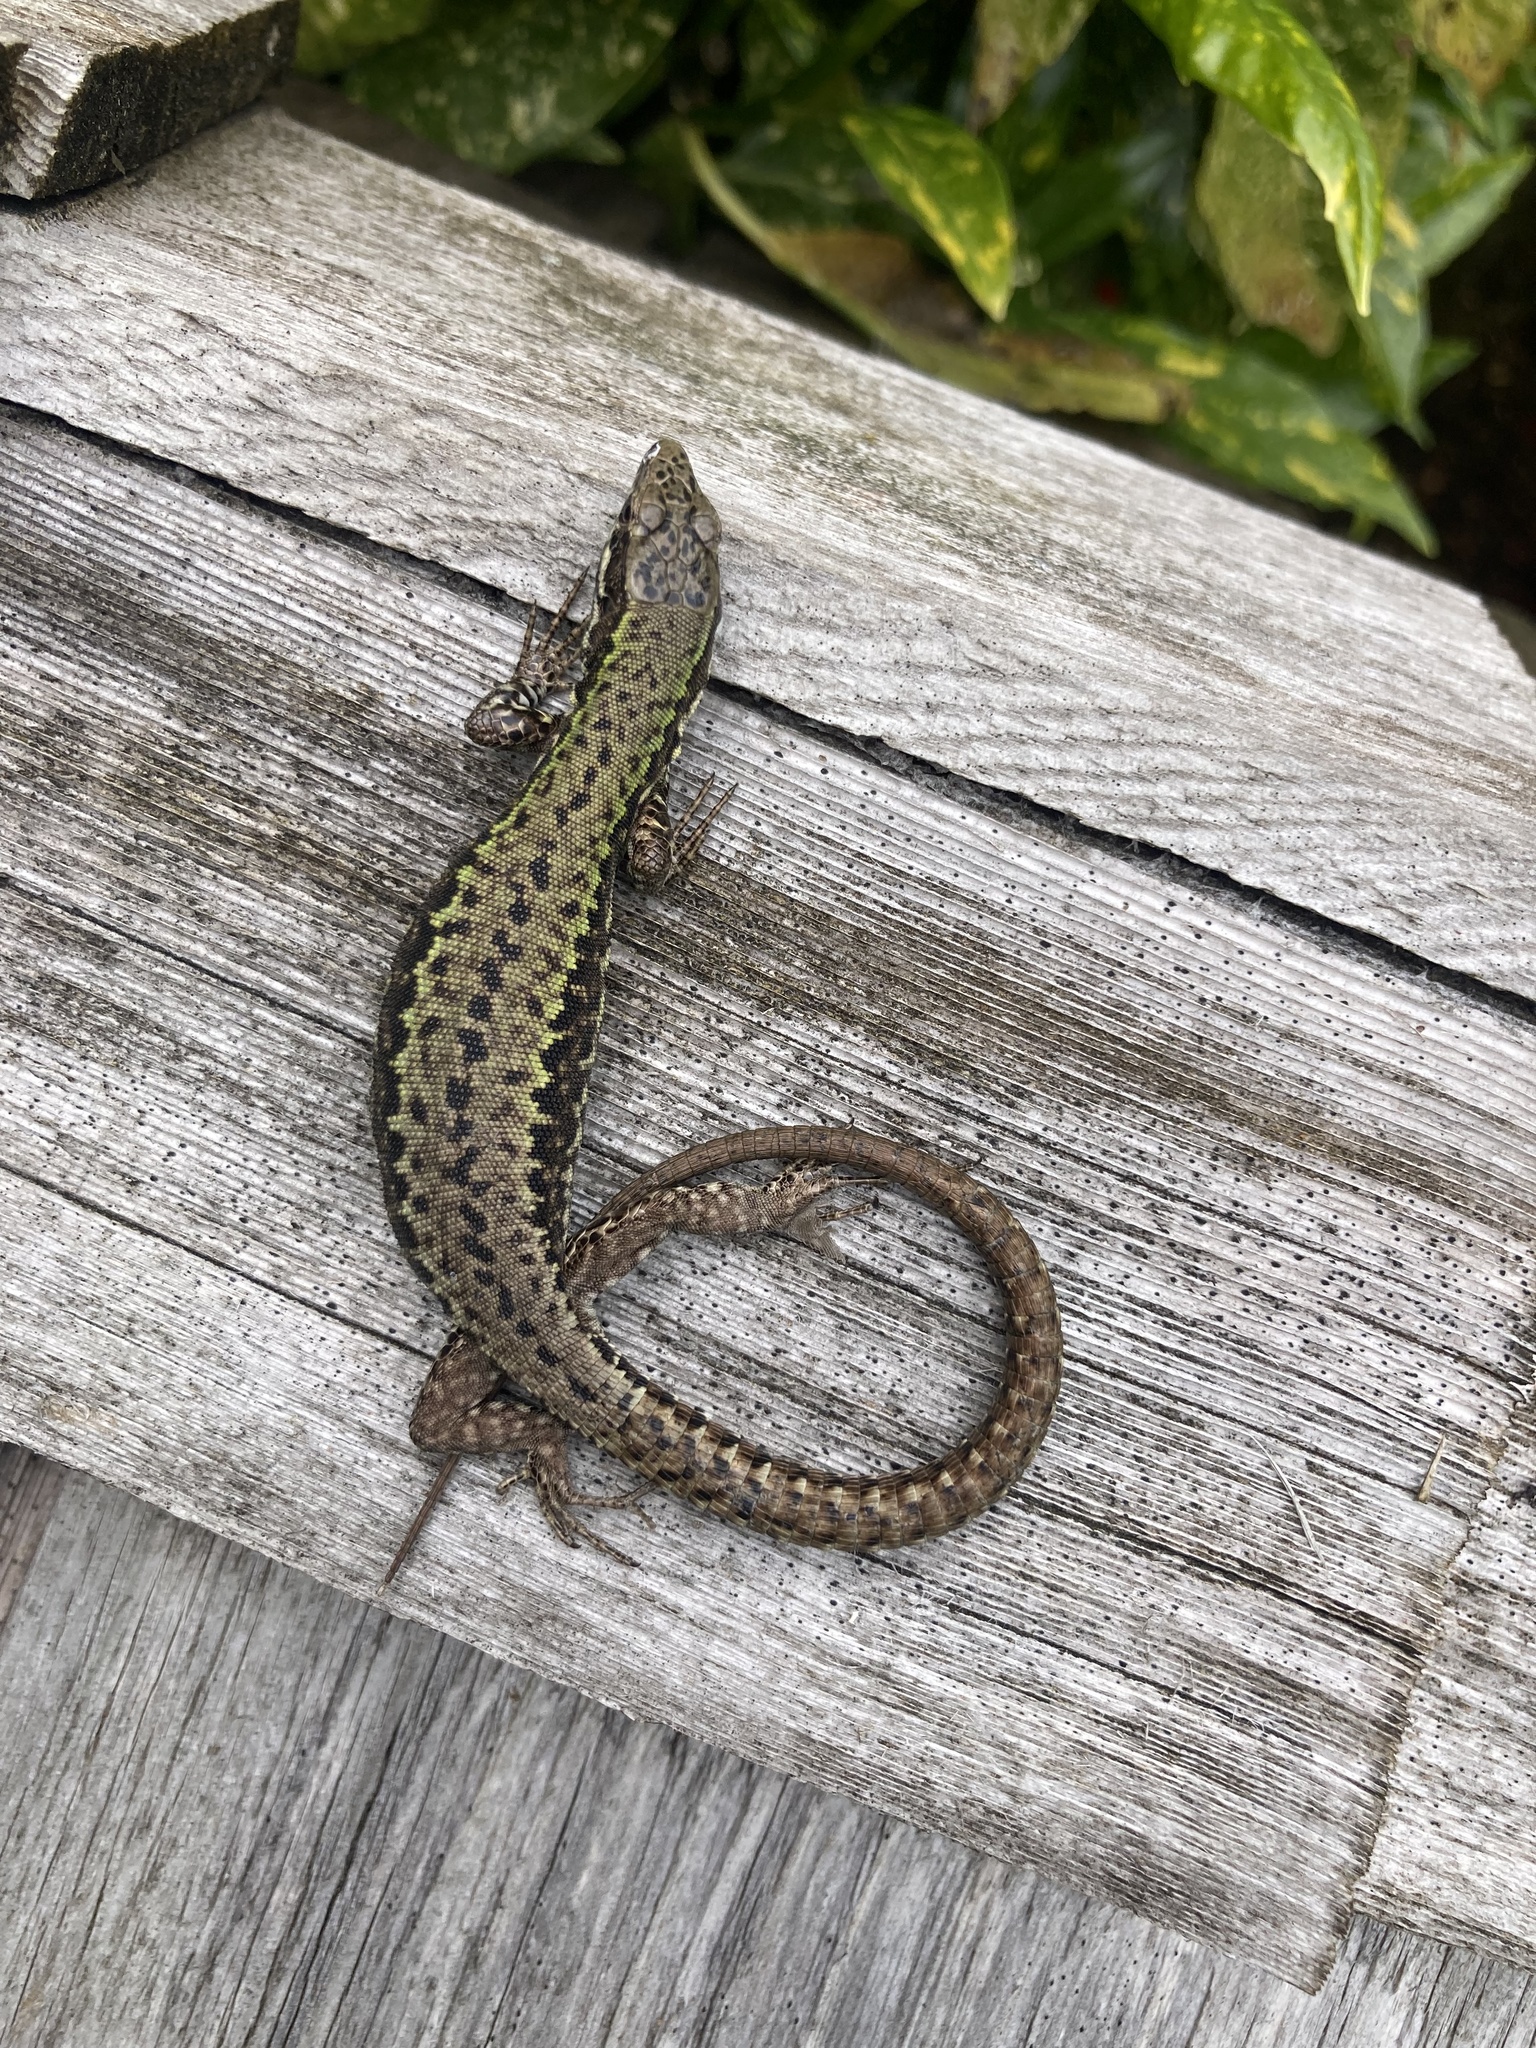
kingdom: Animalia
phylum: Chordata
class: Squamata
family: Lacertidae
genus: Podarcis
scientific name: Podarcis muralis
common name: Common wall lizard
